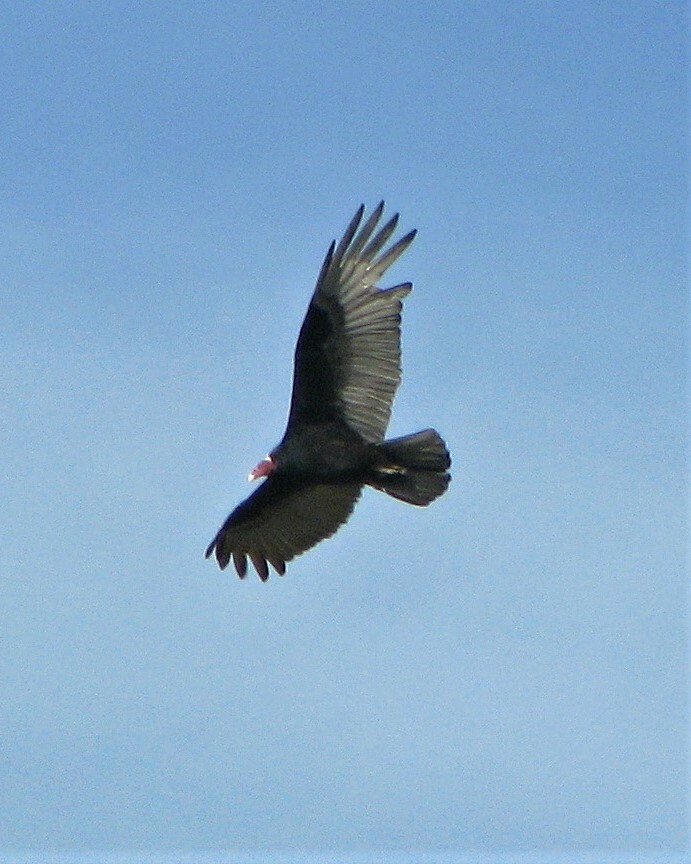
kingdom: Animalia
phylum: Chordata
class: Aves
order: Accipitriformes
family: Cathartidae
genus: Cathartes
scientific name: Cathartes aura
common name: Turkey vulture
